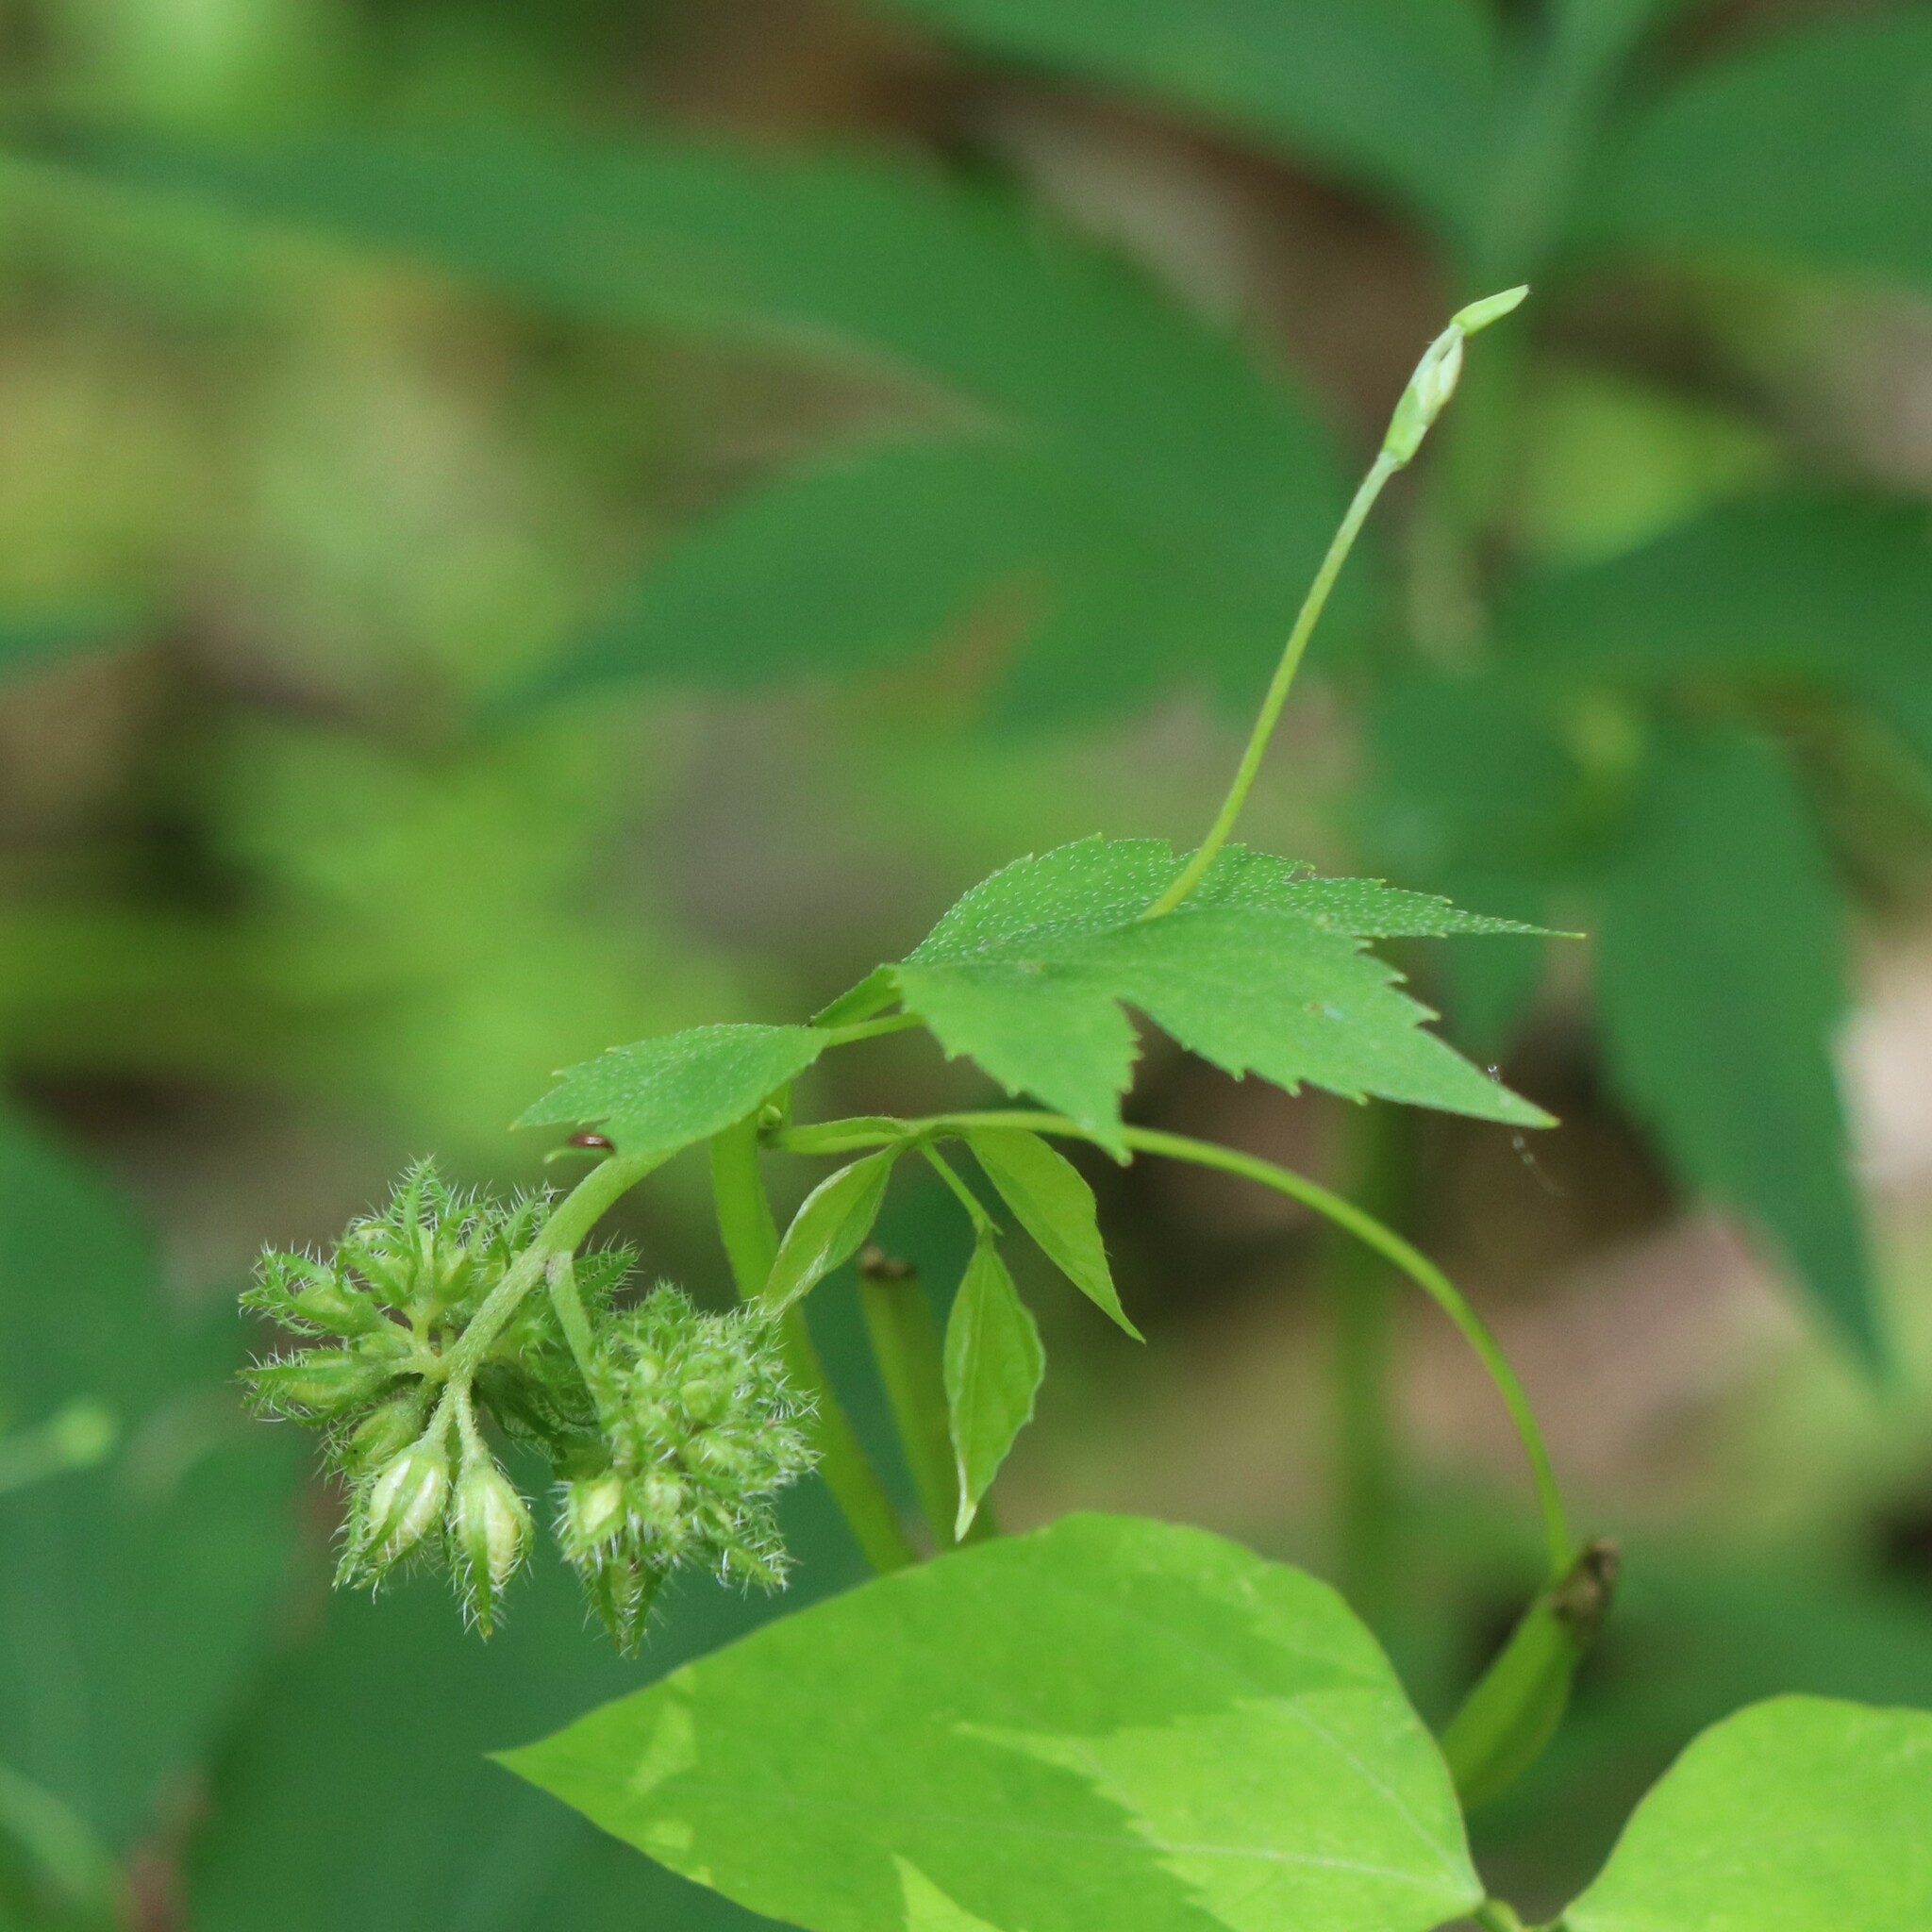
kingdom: Plantae
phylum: Tracheophyta
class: Magnoliopsida
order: Boraginales
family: Hydrophyllaceae
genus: Hydrophyllum
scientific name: Hydrophyllum virginianum
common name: Virginia waterleaf
